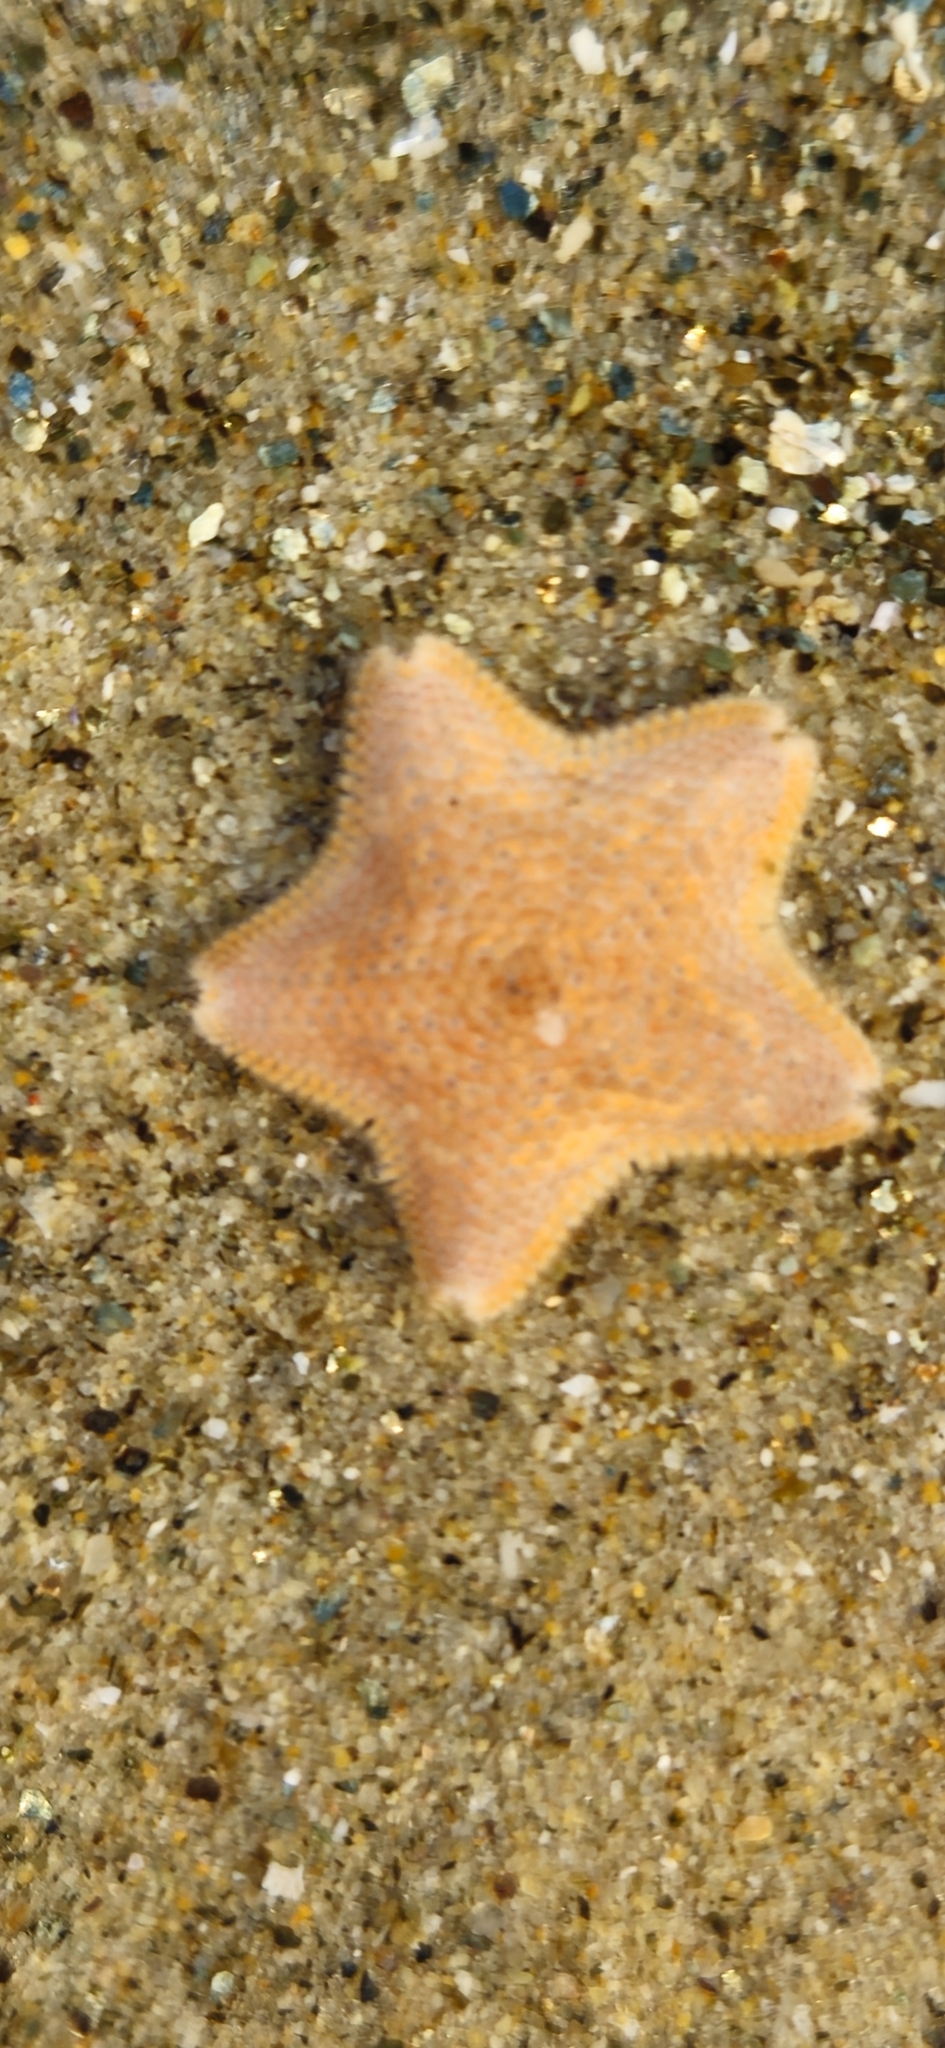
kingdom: Animalia
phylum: Echinodermata
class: Asteroidea
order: Valvatida
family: Asterinidae
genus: Patiria
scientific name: Patiria miniata
